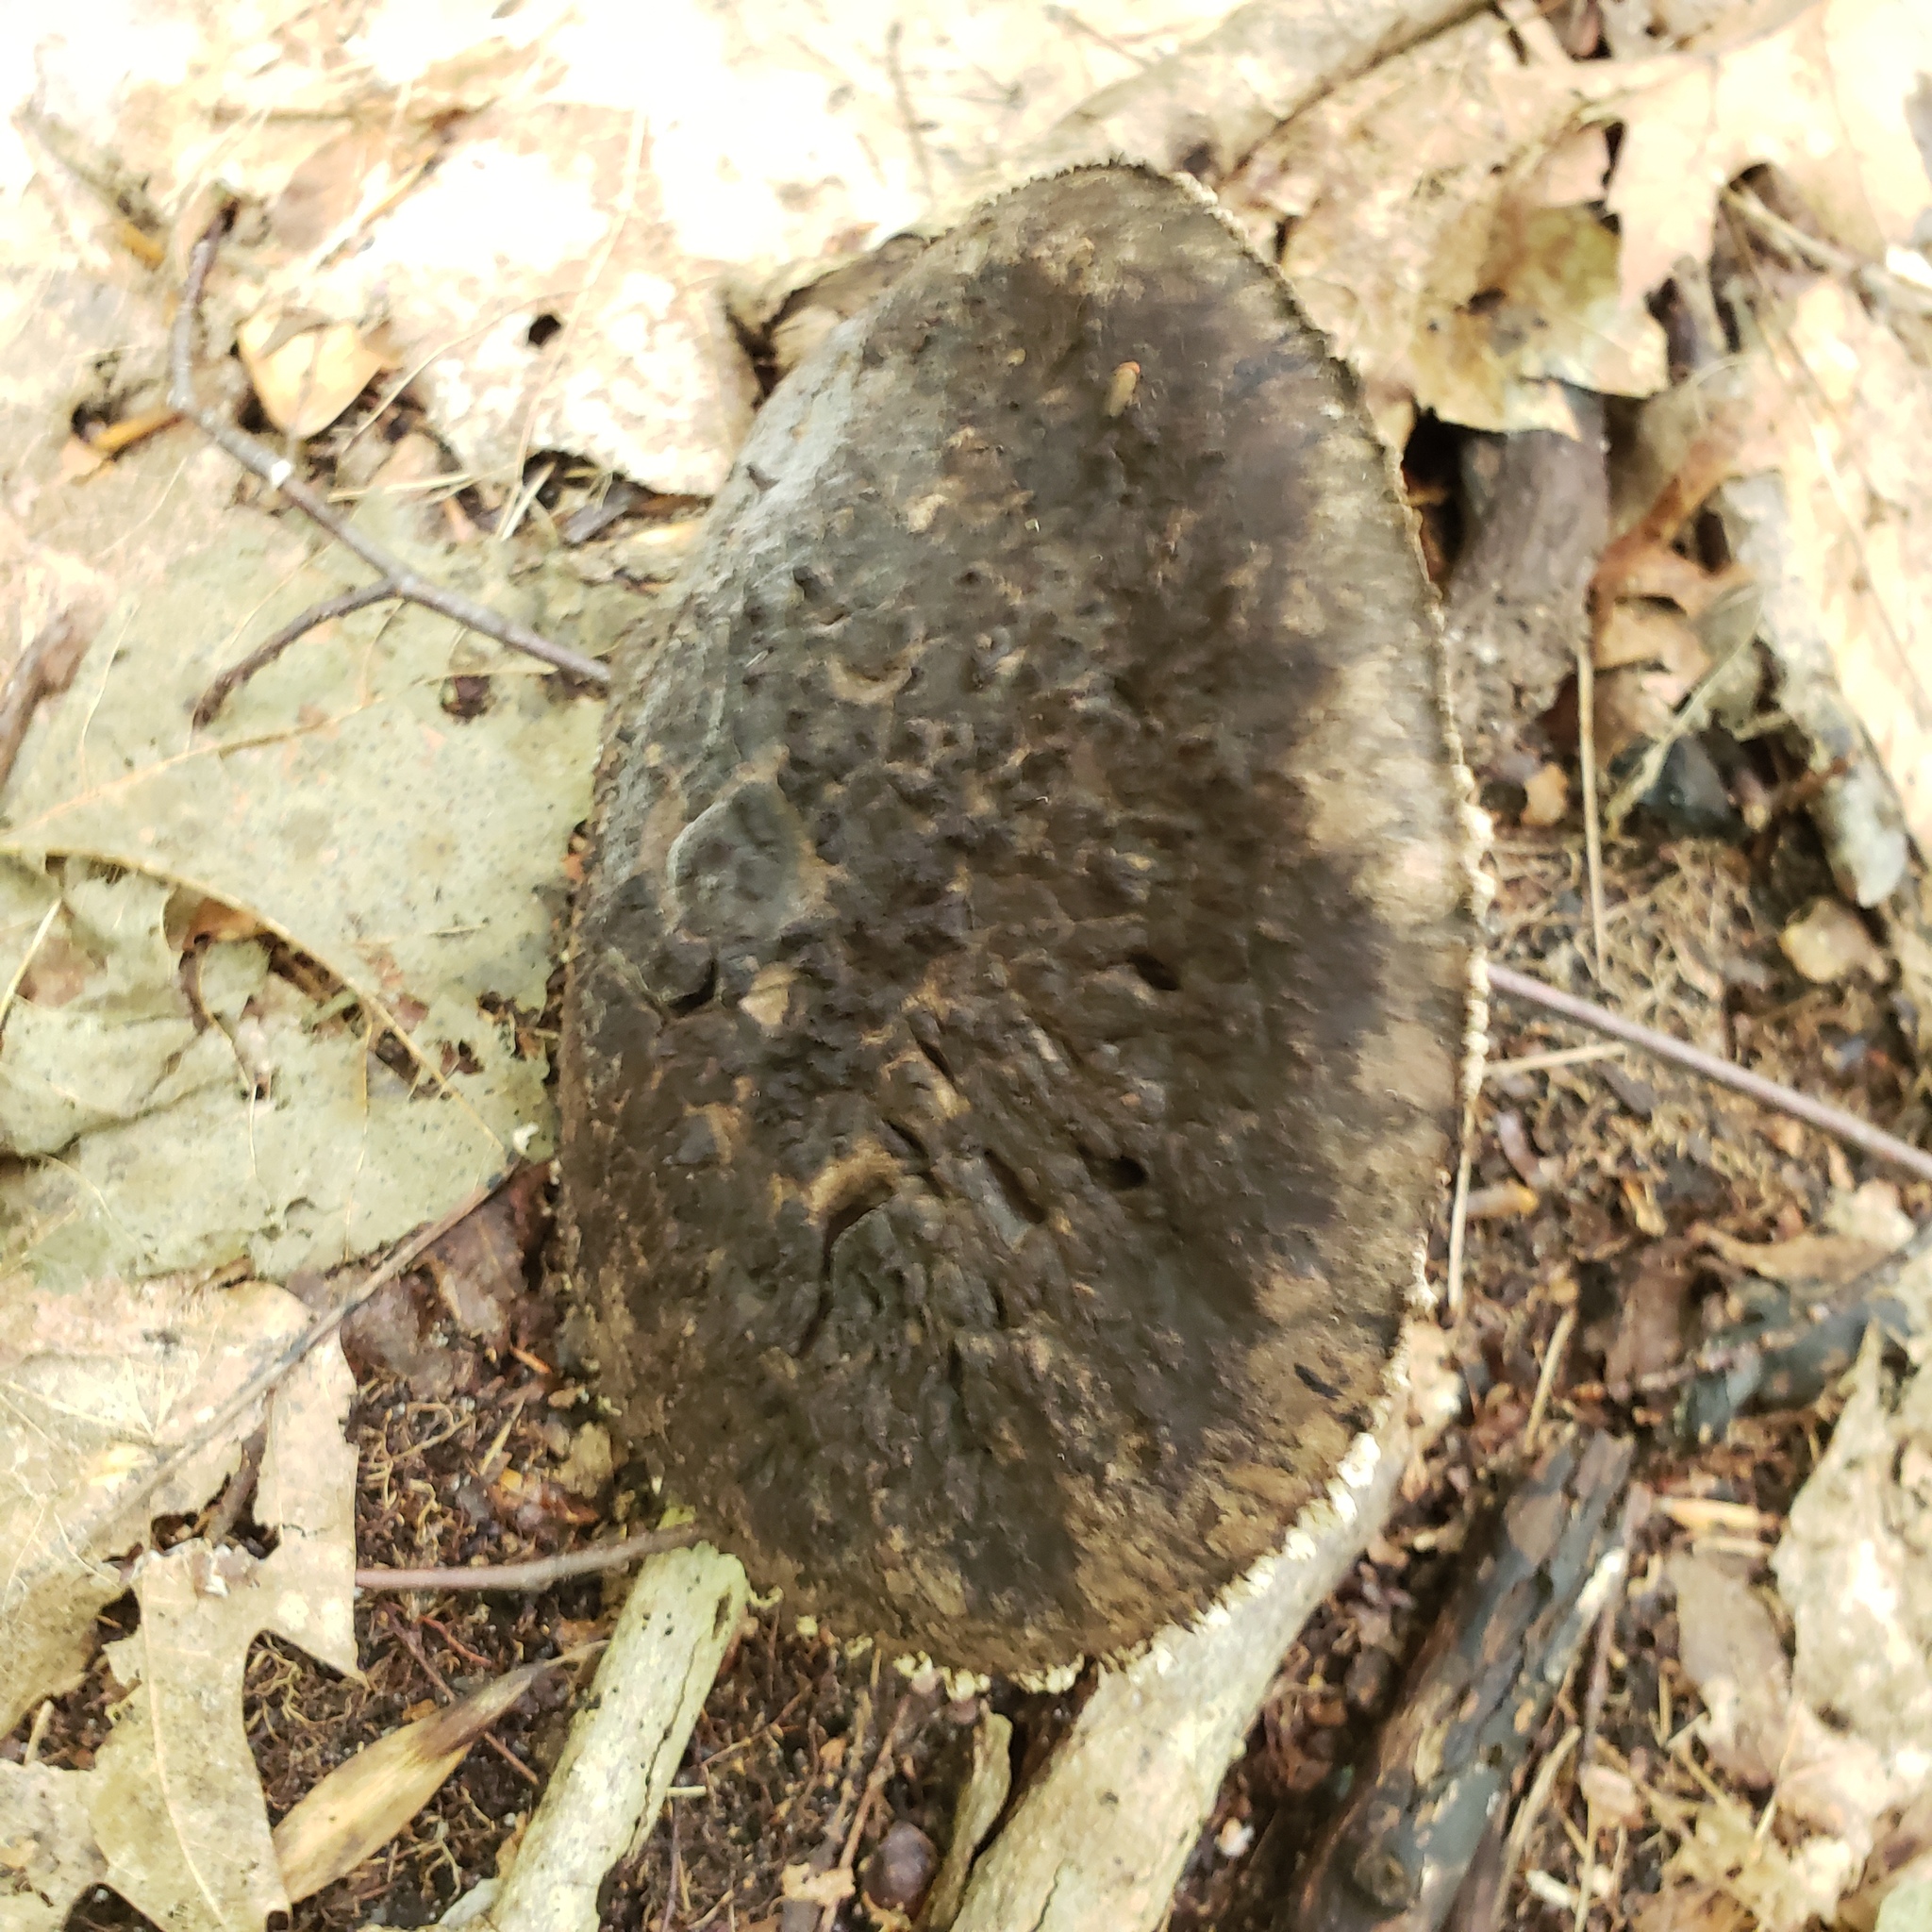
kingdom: Fungi
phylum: Basidiomycota
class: Agaricomycetes
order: Boletales
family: Boletaceae
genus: Strobilomyces
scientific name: Strobilomyces strobilaceus
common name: Old man of the woods
